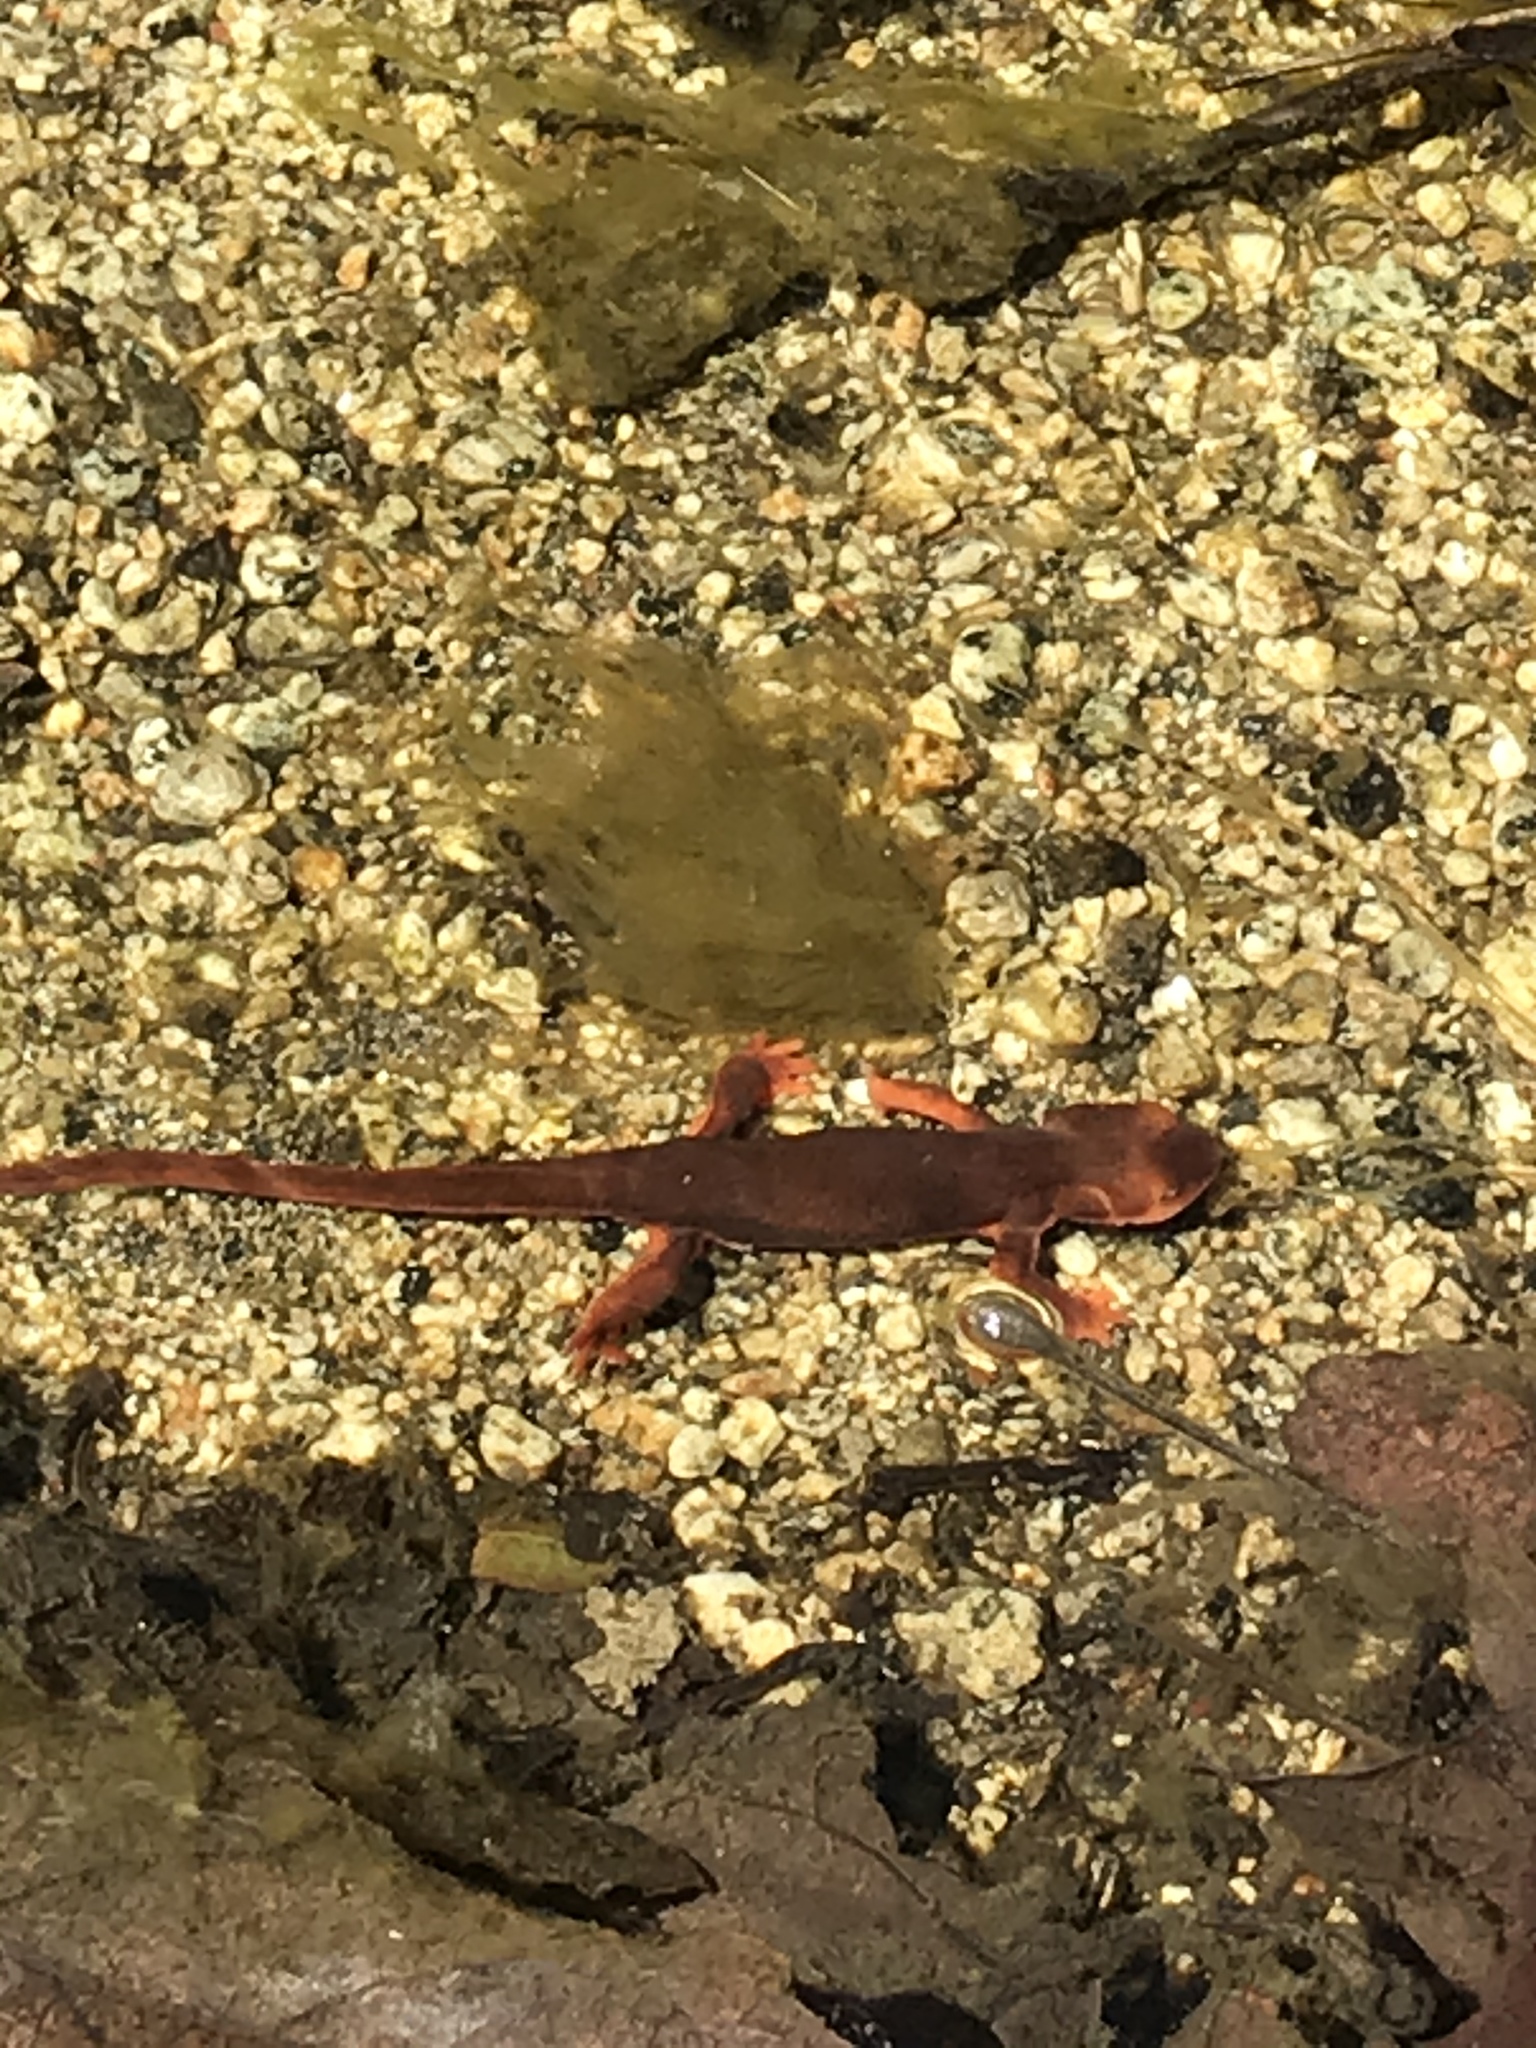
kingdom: Animalia
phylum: Chordata
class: Amphibia
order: Caudata
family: Salamandridae
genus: Taricha
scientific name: Taricha torosa
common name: California newt
